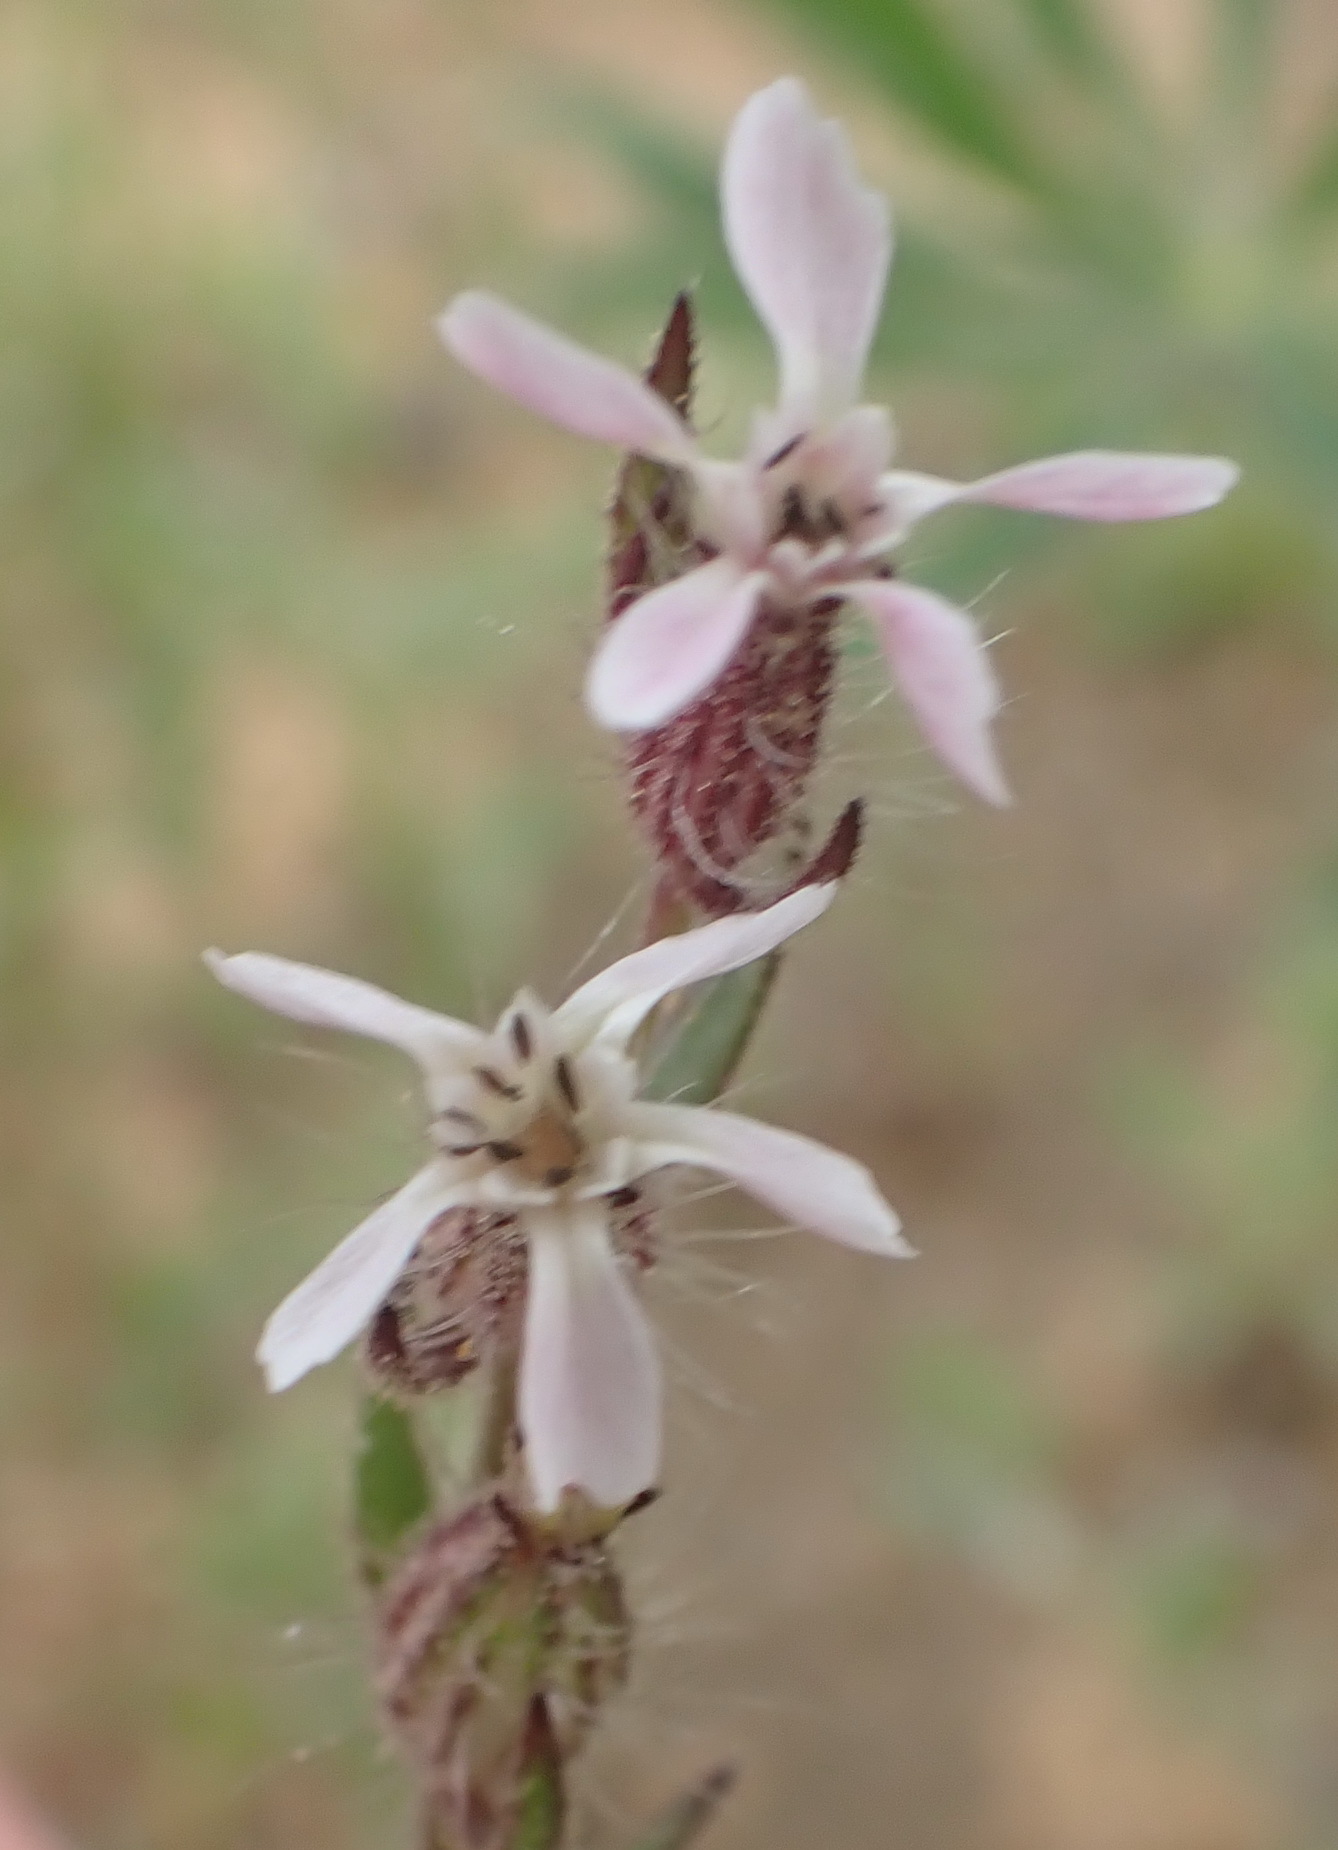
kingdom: Plantae
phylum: Tracheophyta
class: Magnoliopsida
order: Caryophyllales
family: Caryophyllaceae
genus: Silene
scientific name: Silene gallica
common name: Small-flowered catchfly
